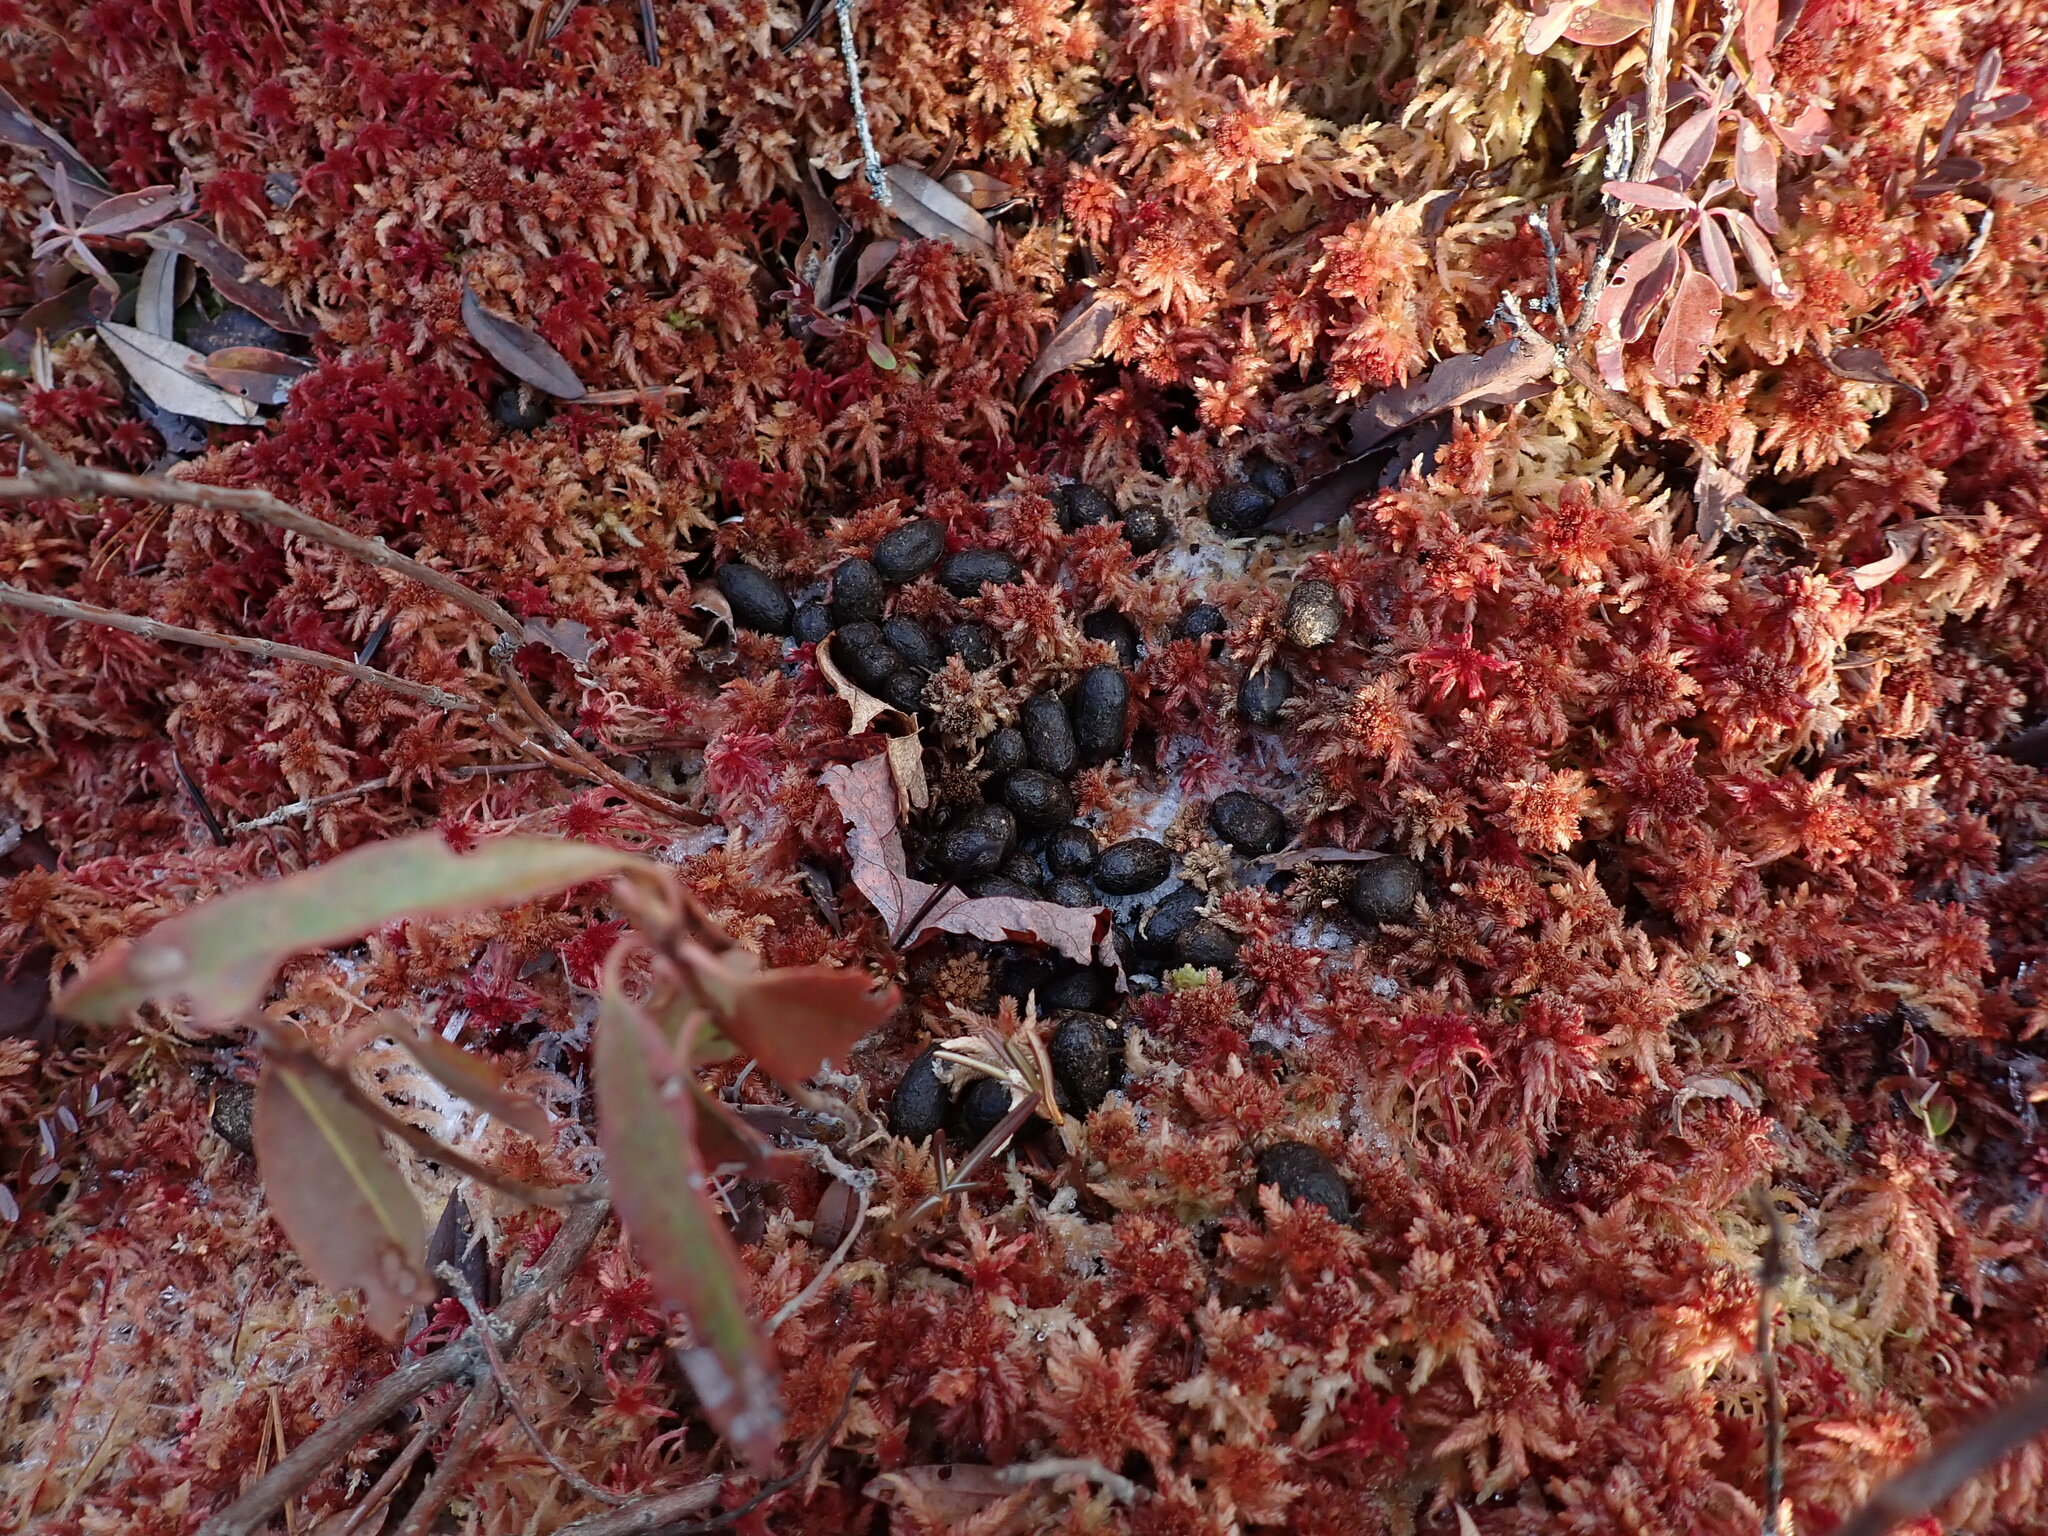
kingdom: Animalia
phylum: Chordata
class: Mammalia
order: Artiodactyla
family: Cervidae
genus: Odocoileus
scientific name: Odocoileus virginianus
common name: White-tailed deer
